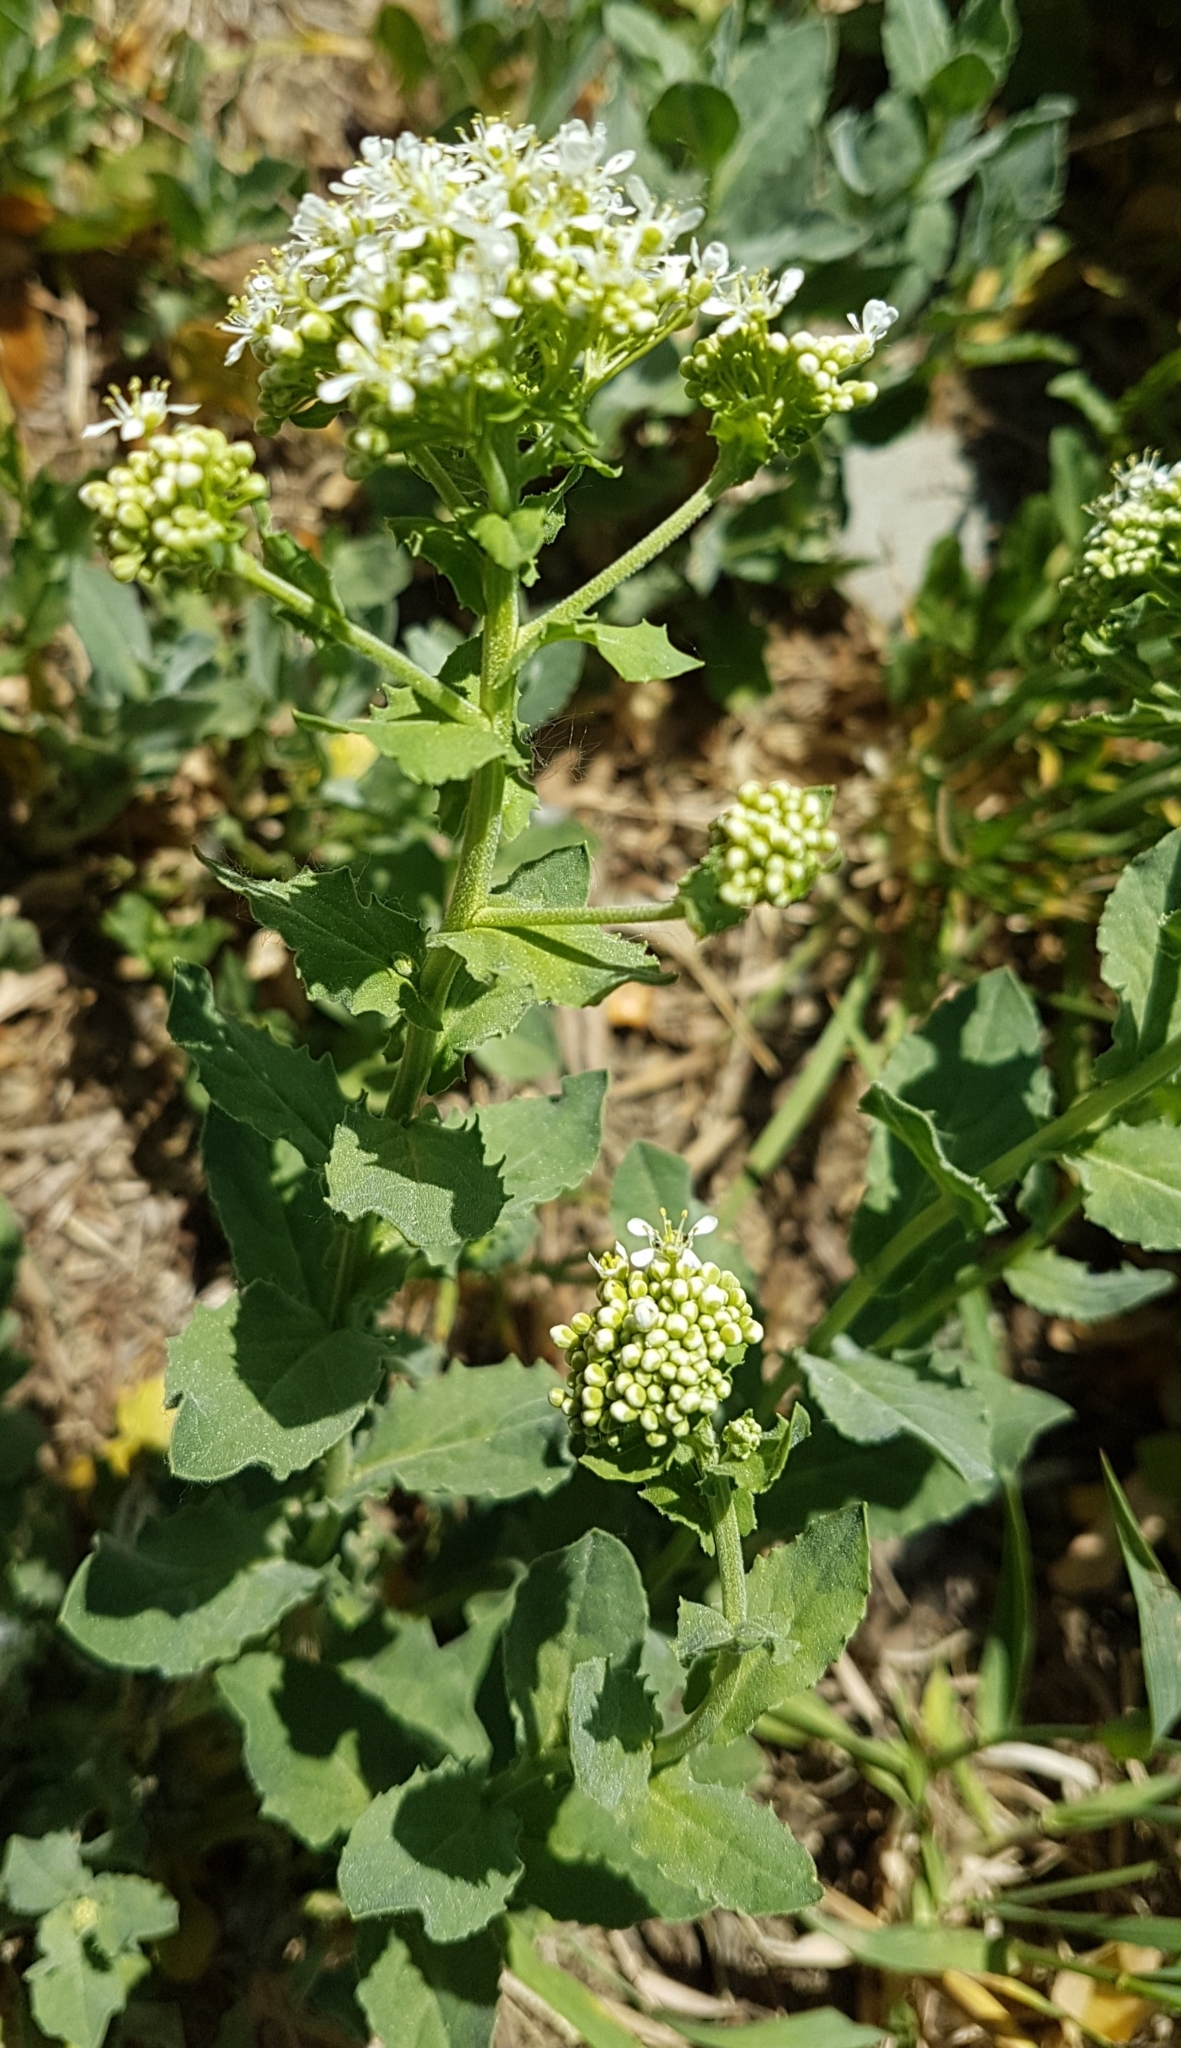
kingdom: Plantae
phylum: Tracheophyta
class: Magnoliopsida
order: Brassicales
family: Brassicaceae
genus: Lepidium
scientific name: Lepidium draba
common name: Hoary cress
